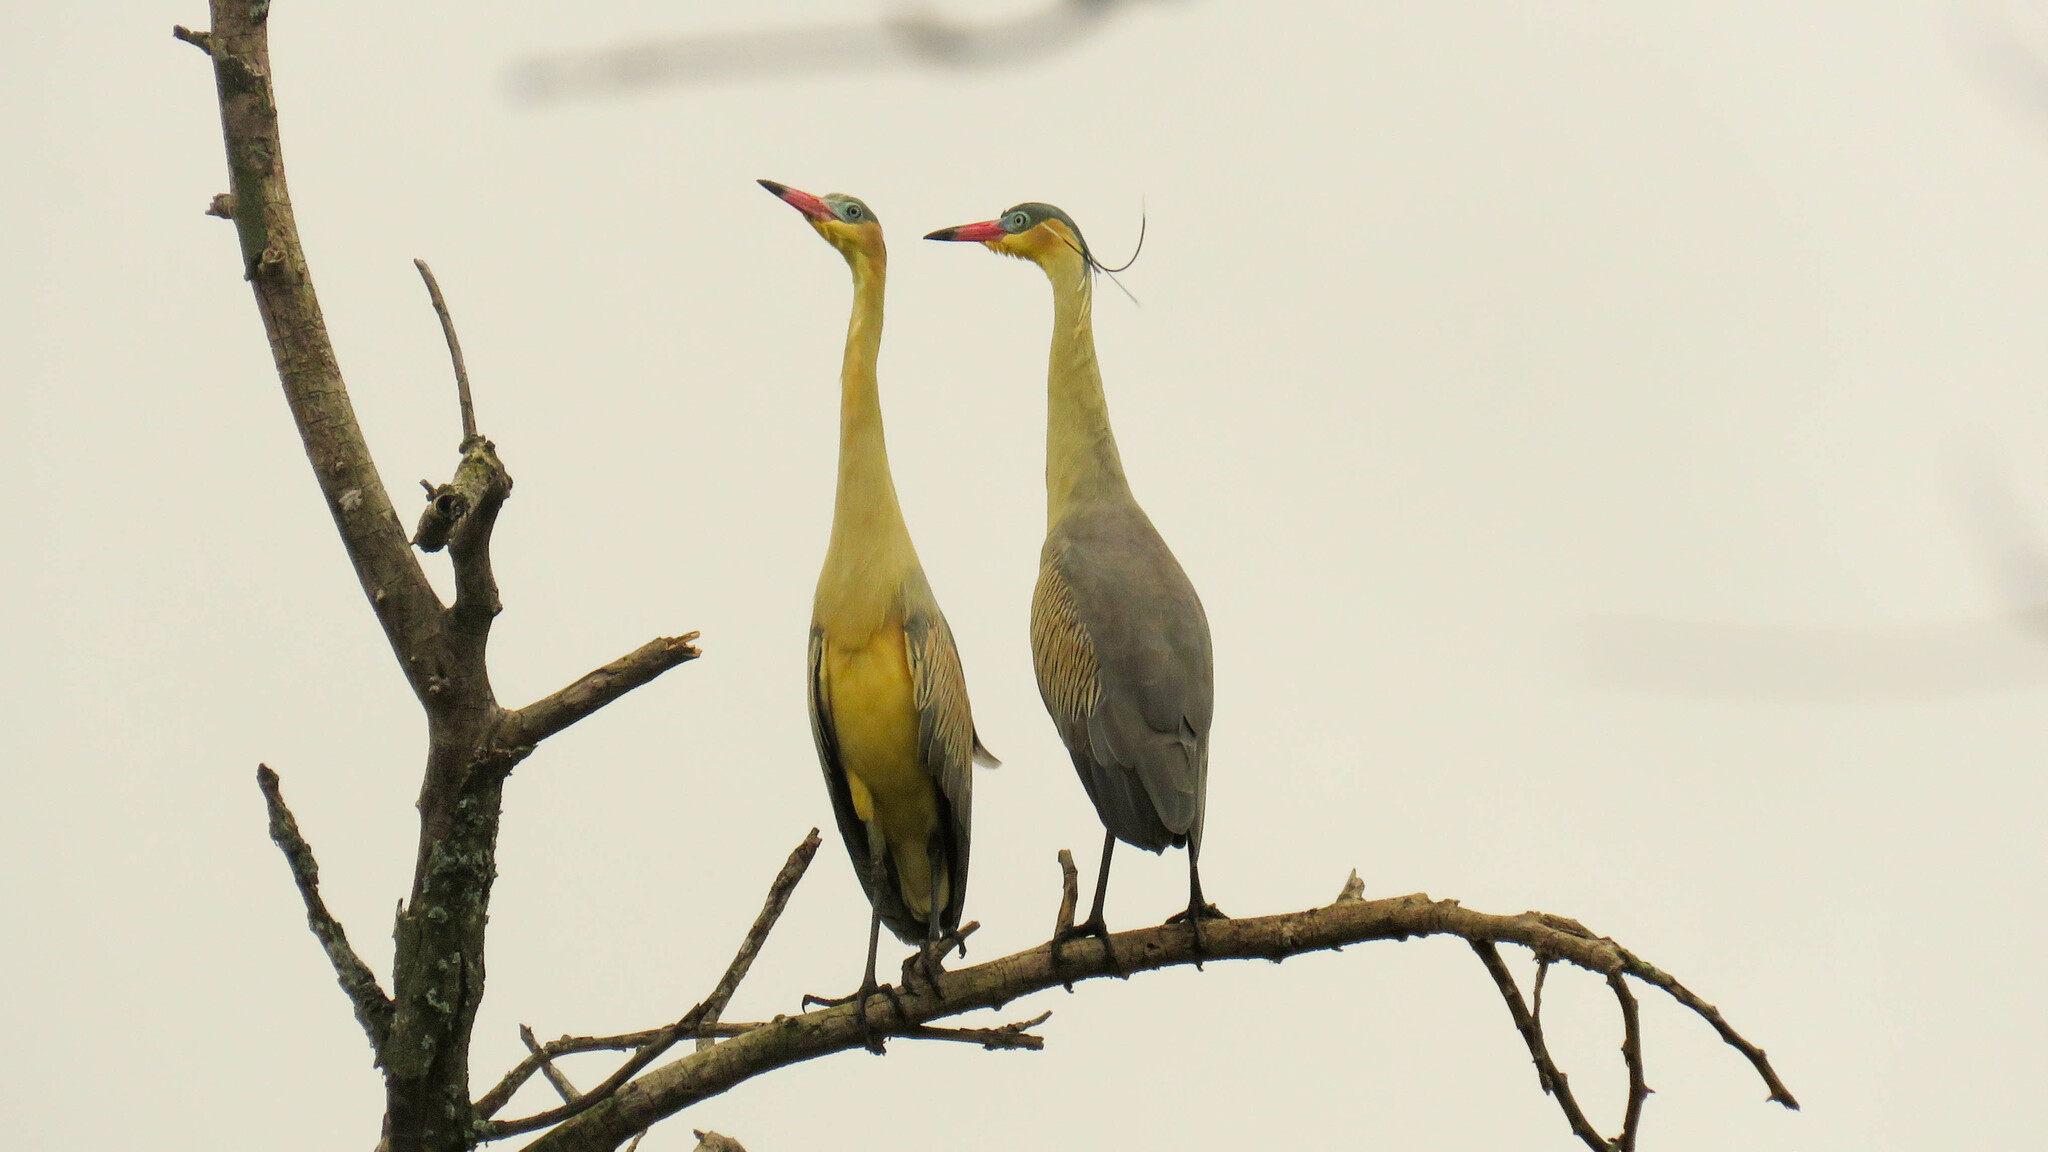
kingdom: Animalia
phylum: Chordata
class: Aves
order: Pelecaniformes
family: Ardeidae
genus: Syrigma
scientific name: Syrigma sibilatrix
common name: Whistling heron
